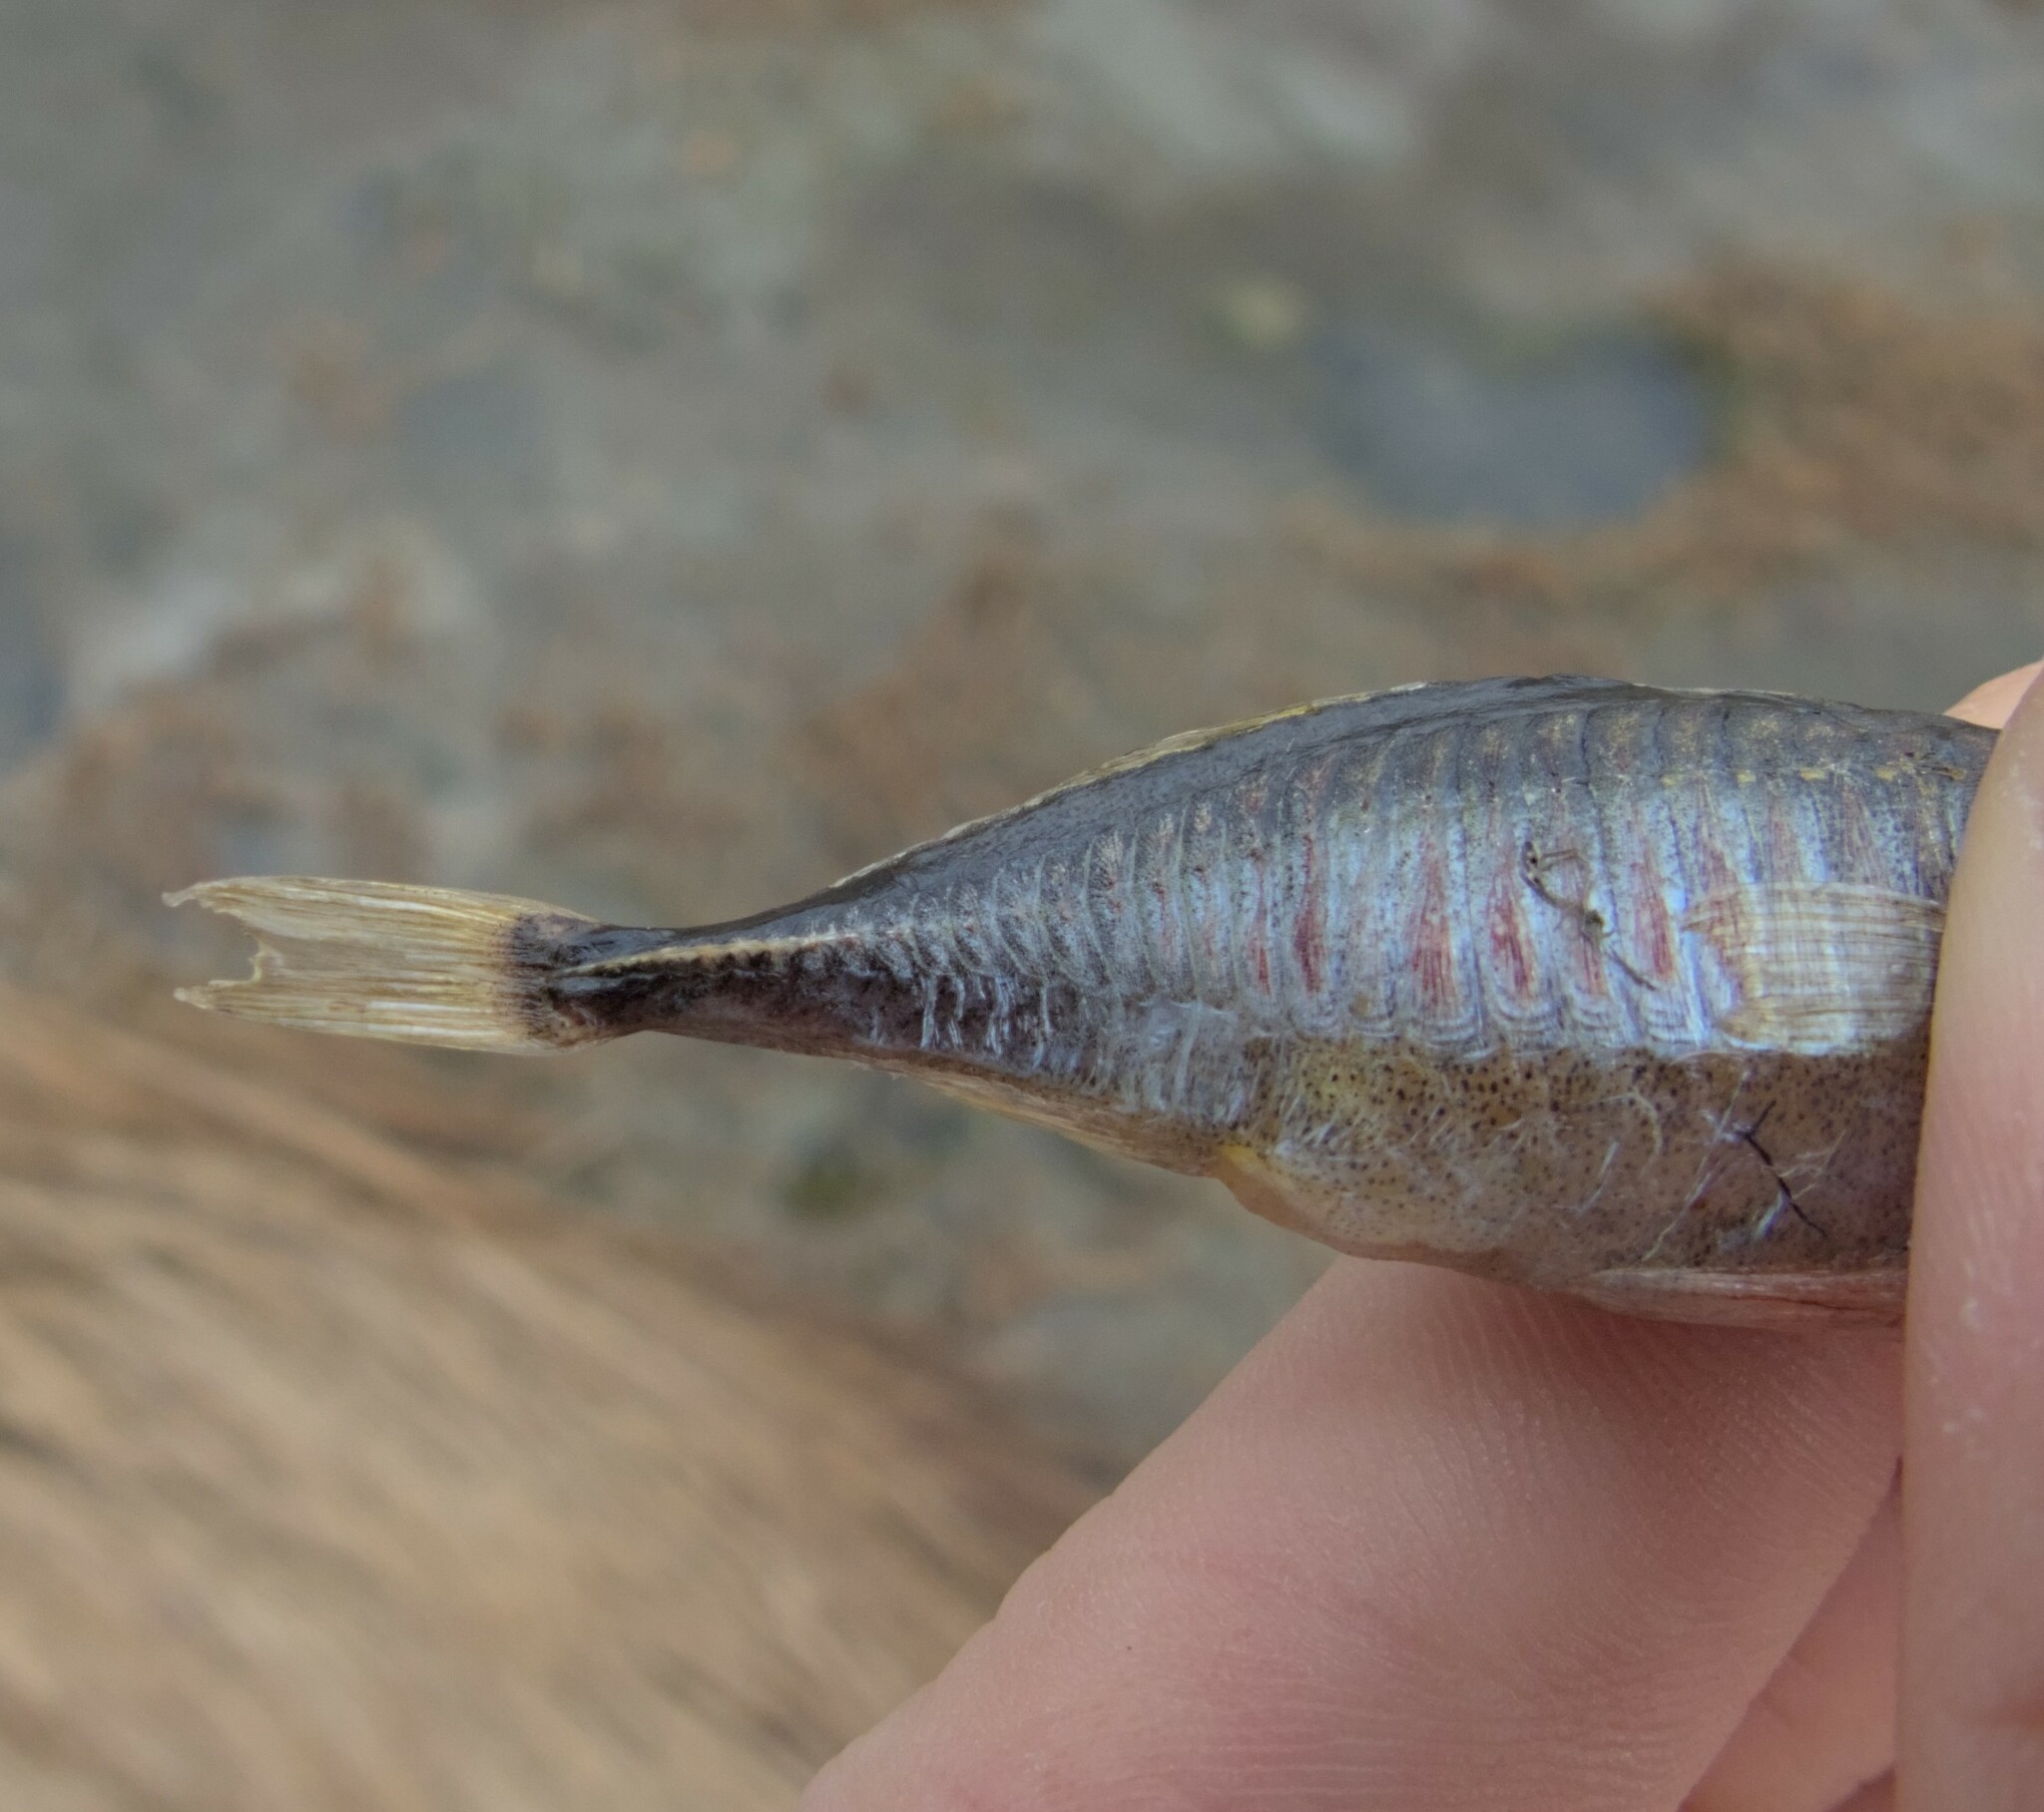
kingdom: Animalia
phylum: Chordata
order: Gasterosteiformes
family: Gasterosteidae
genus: Gasterosteus
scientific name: Gasterosteus aculeatus
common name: Three-spined stickleback
